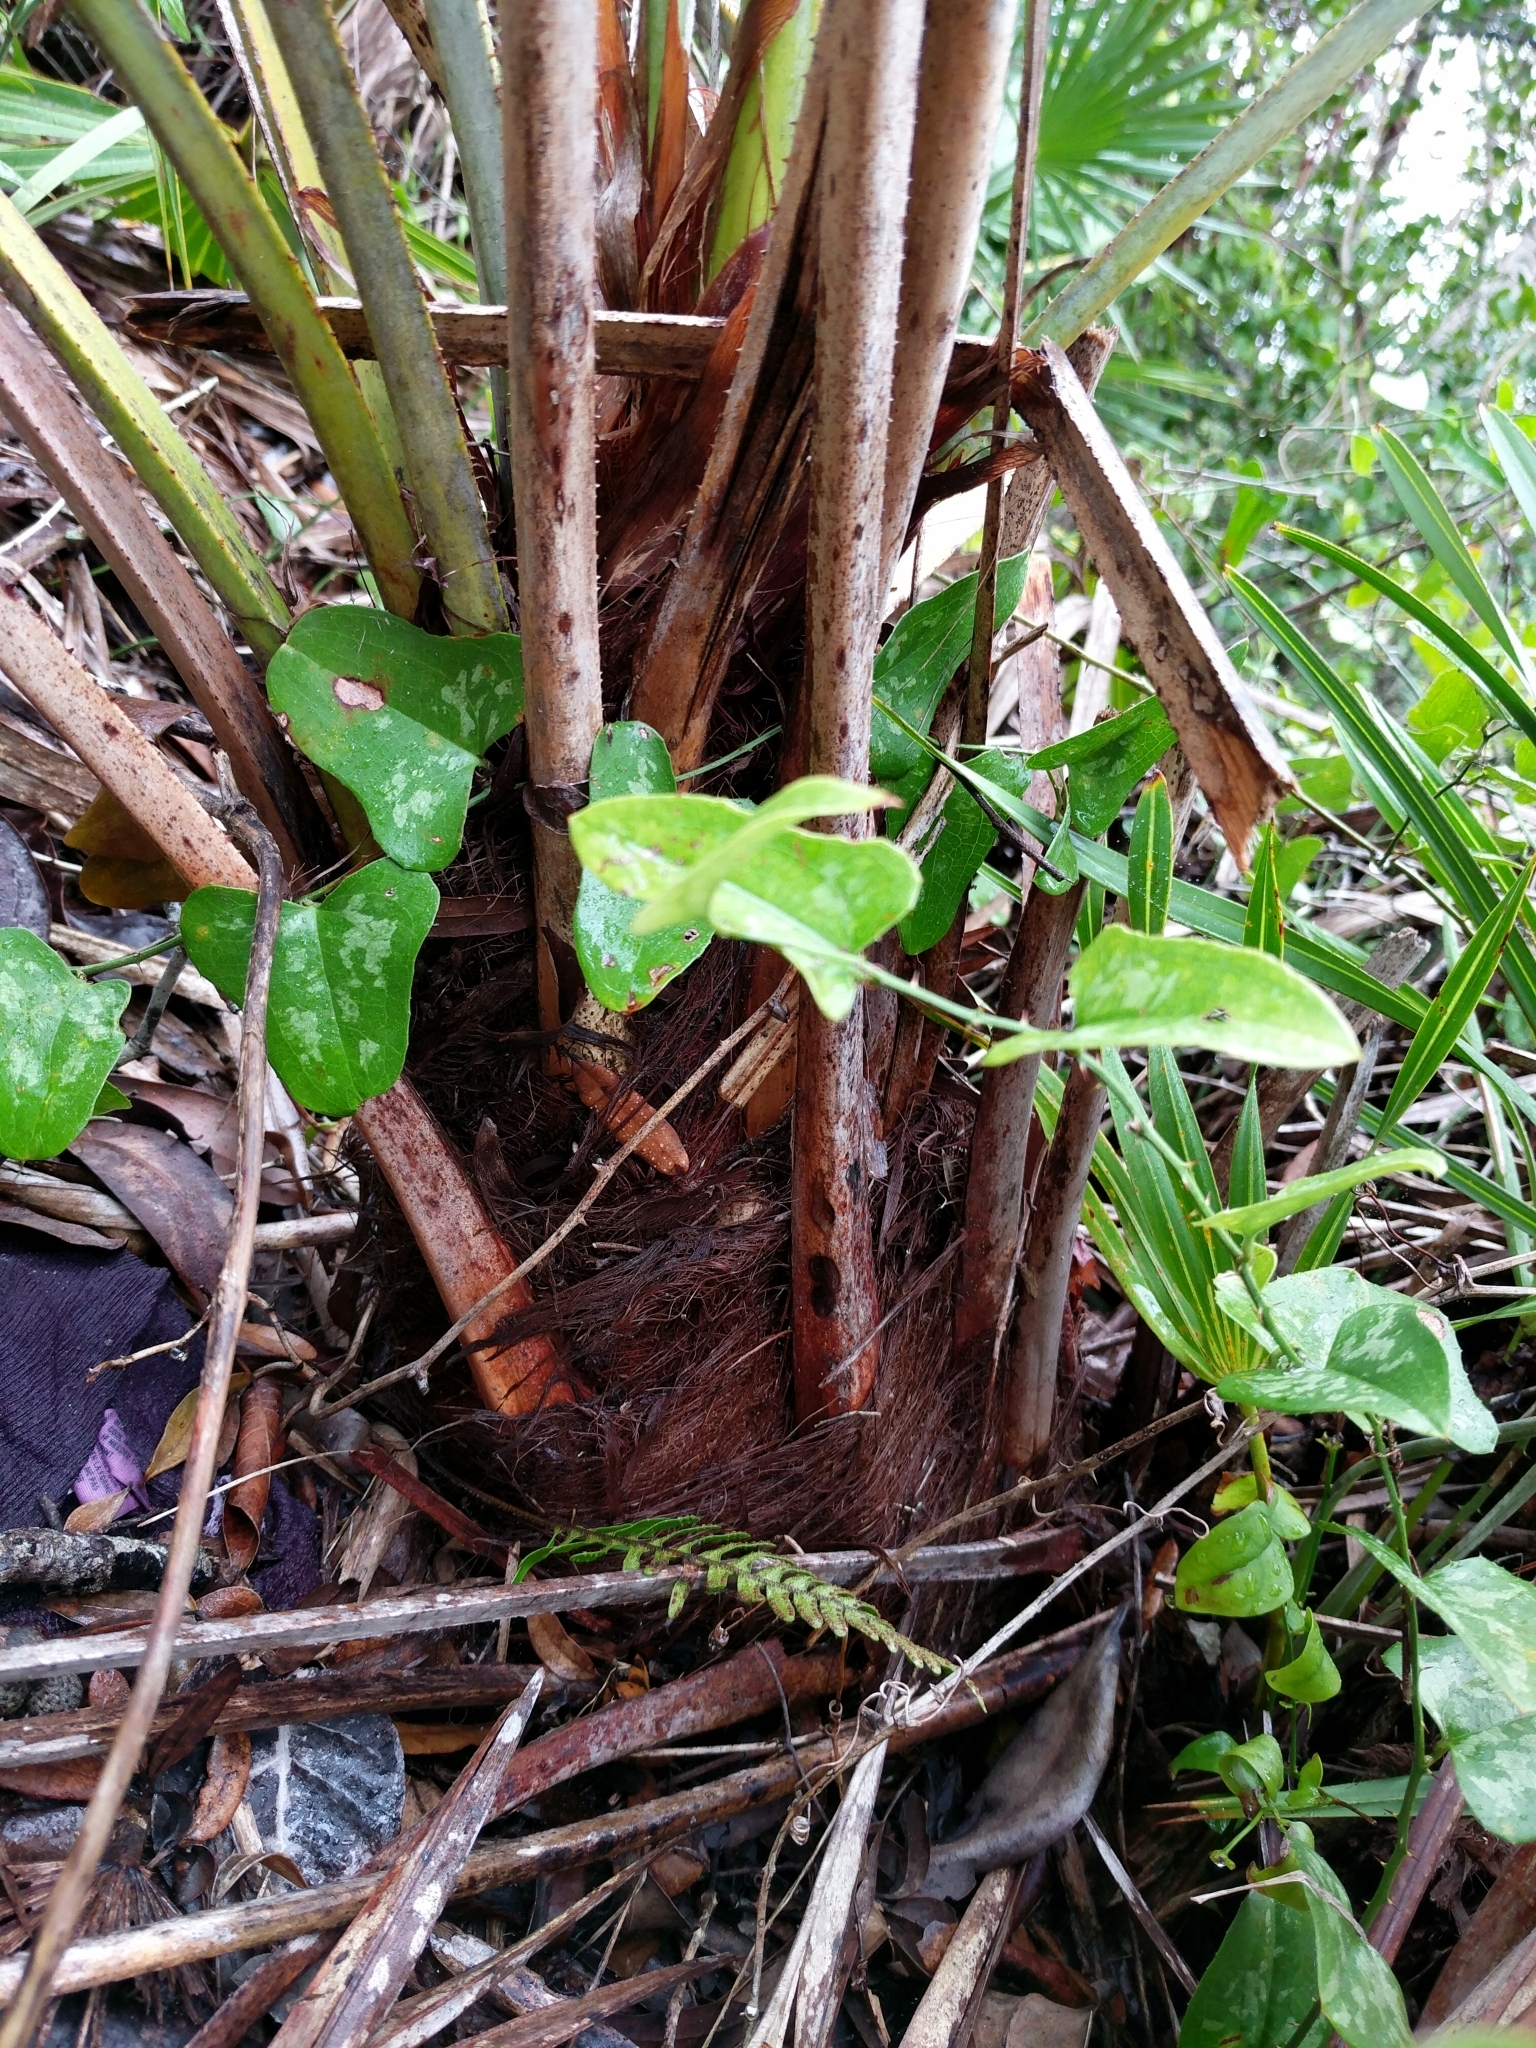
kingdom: Plantae
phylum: Tracheophyta
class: Liliopsida
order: Arecales
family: Arecaceae
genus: Serenoa
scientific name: Serenoa repens
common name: Saw-palmetto
